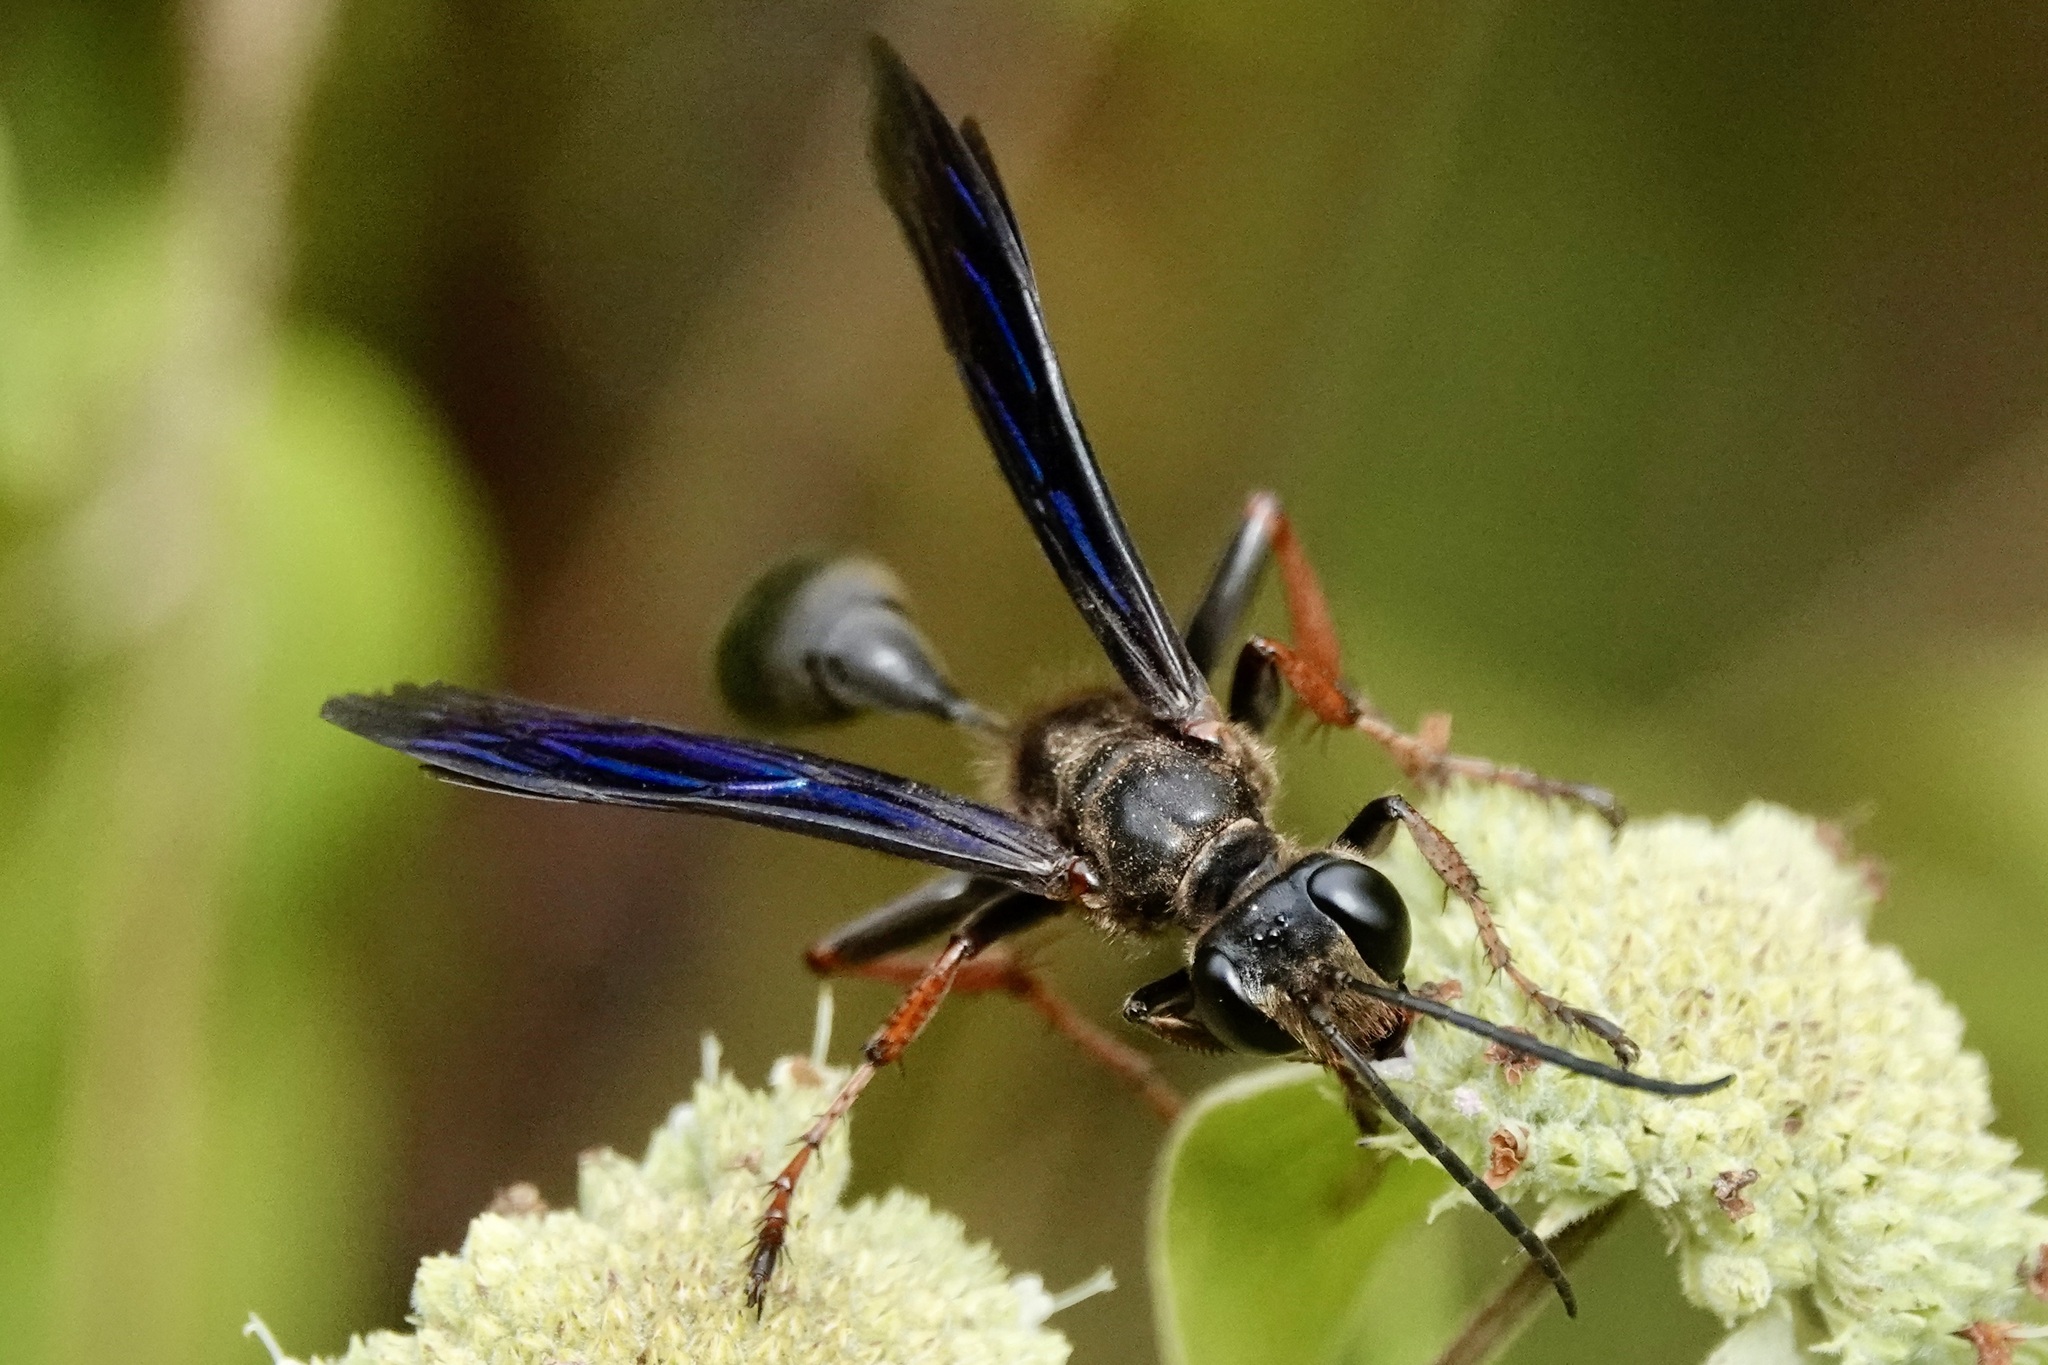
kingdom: Animalia
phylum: Arthropoda
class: Insecta
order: Hymenoptera
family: Sphecidae
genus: Isodontia
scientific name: Isodontia auripes
